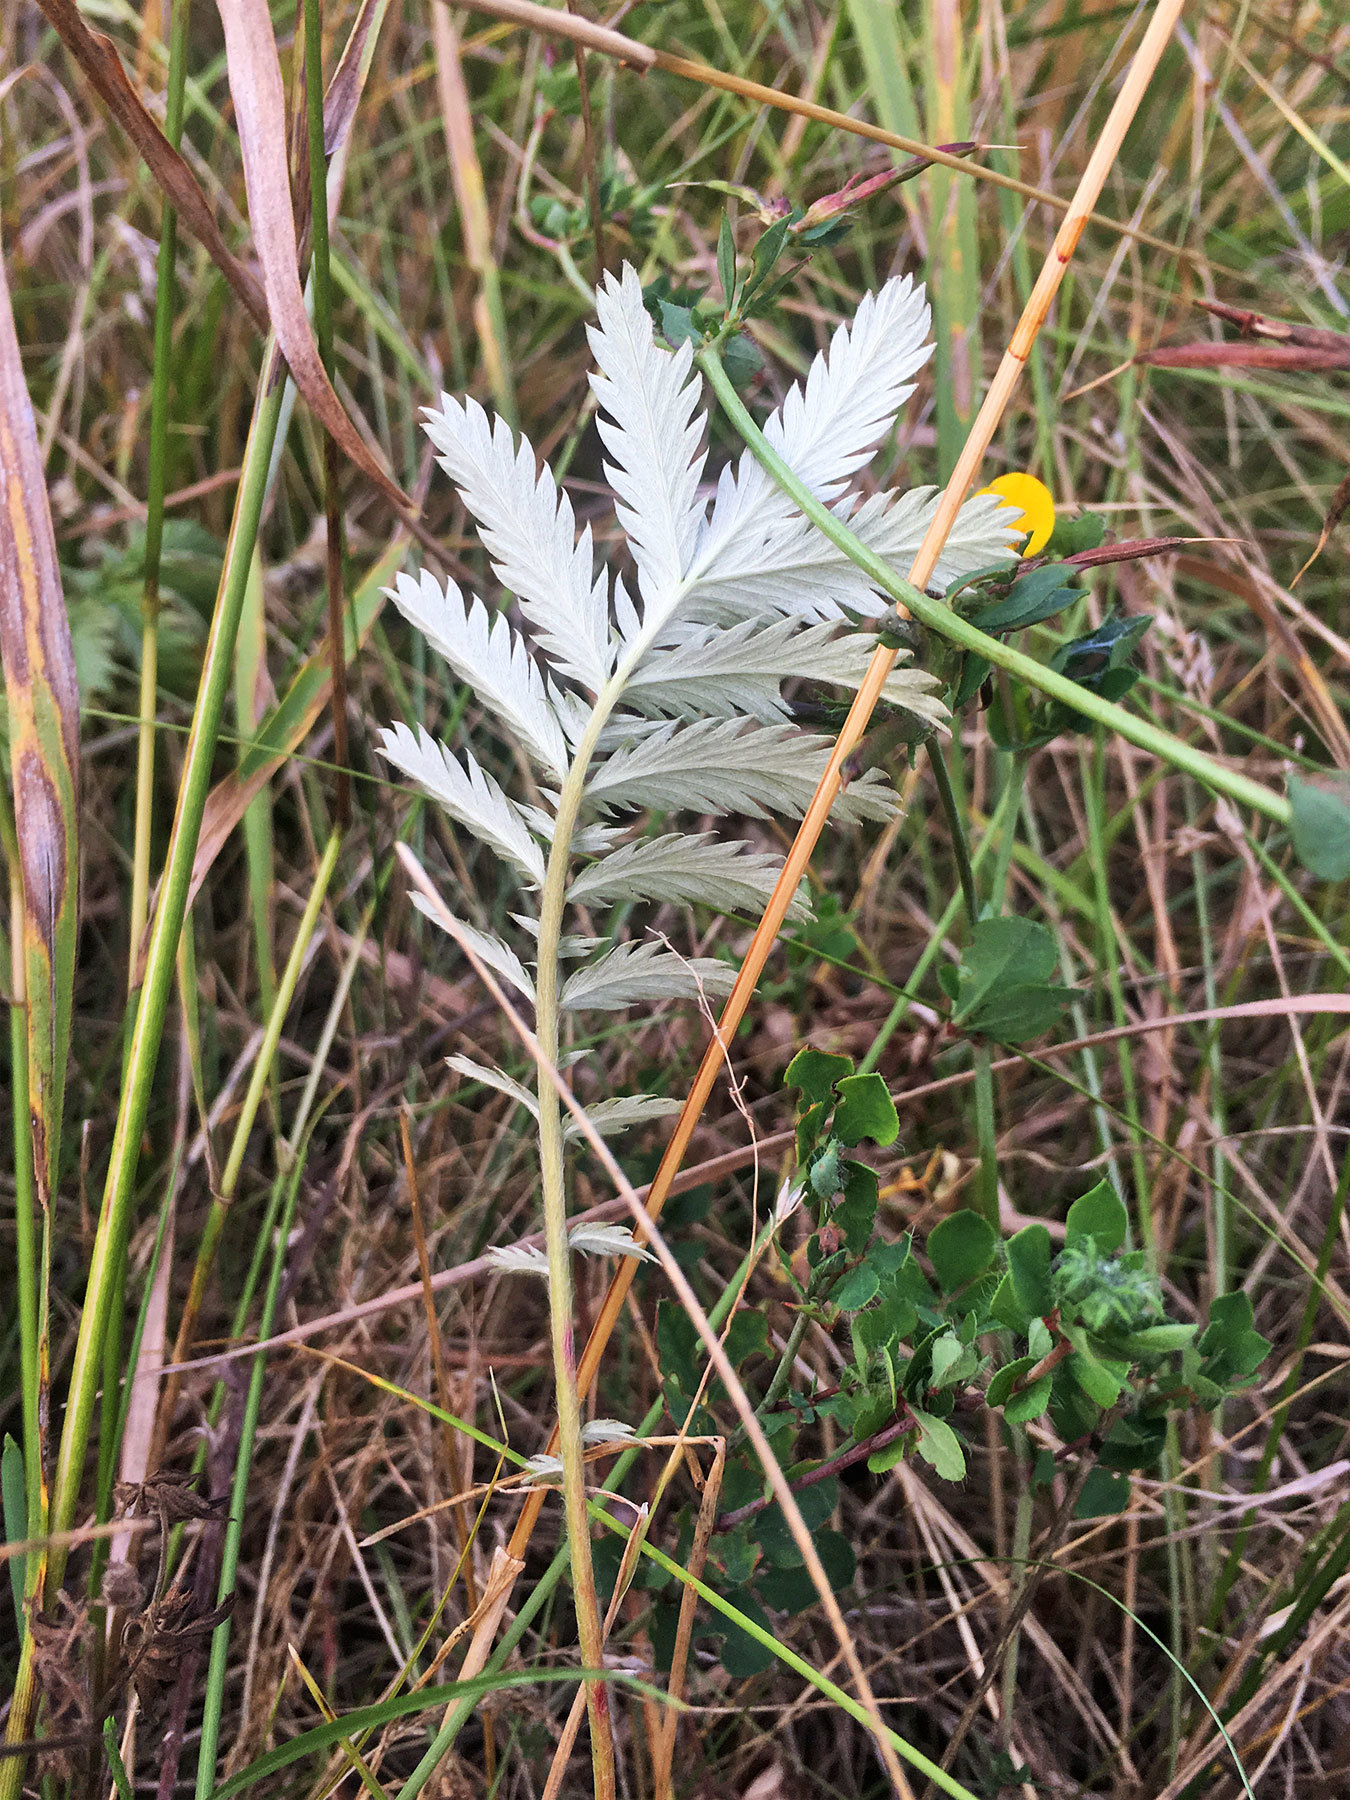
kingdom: Plantae
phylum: Tracheophyta
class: Magnoliopsida
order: Rosales
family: Rosaceae
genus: Argentina
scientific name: Argentina anserina
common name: Common silverweed
